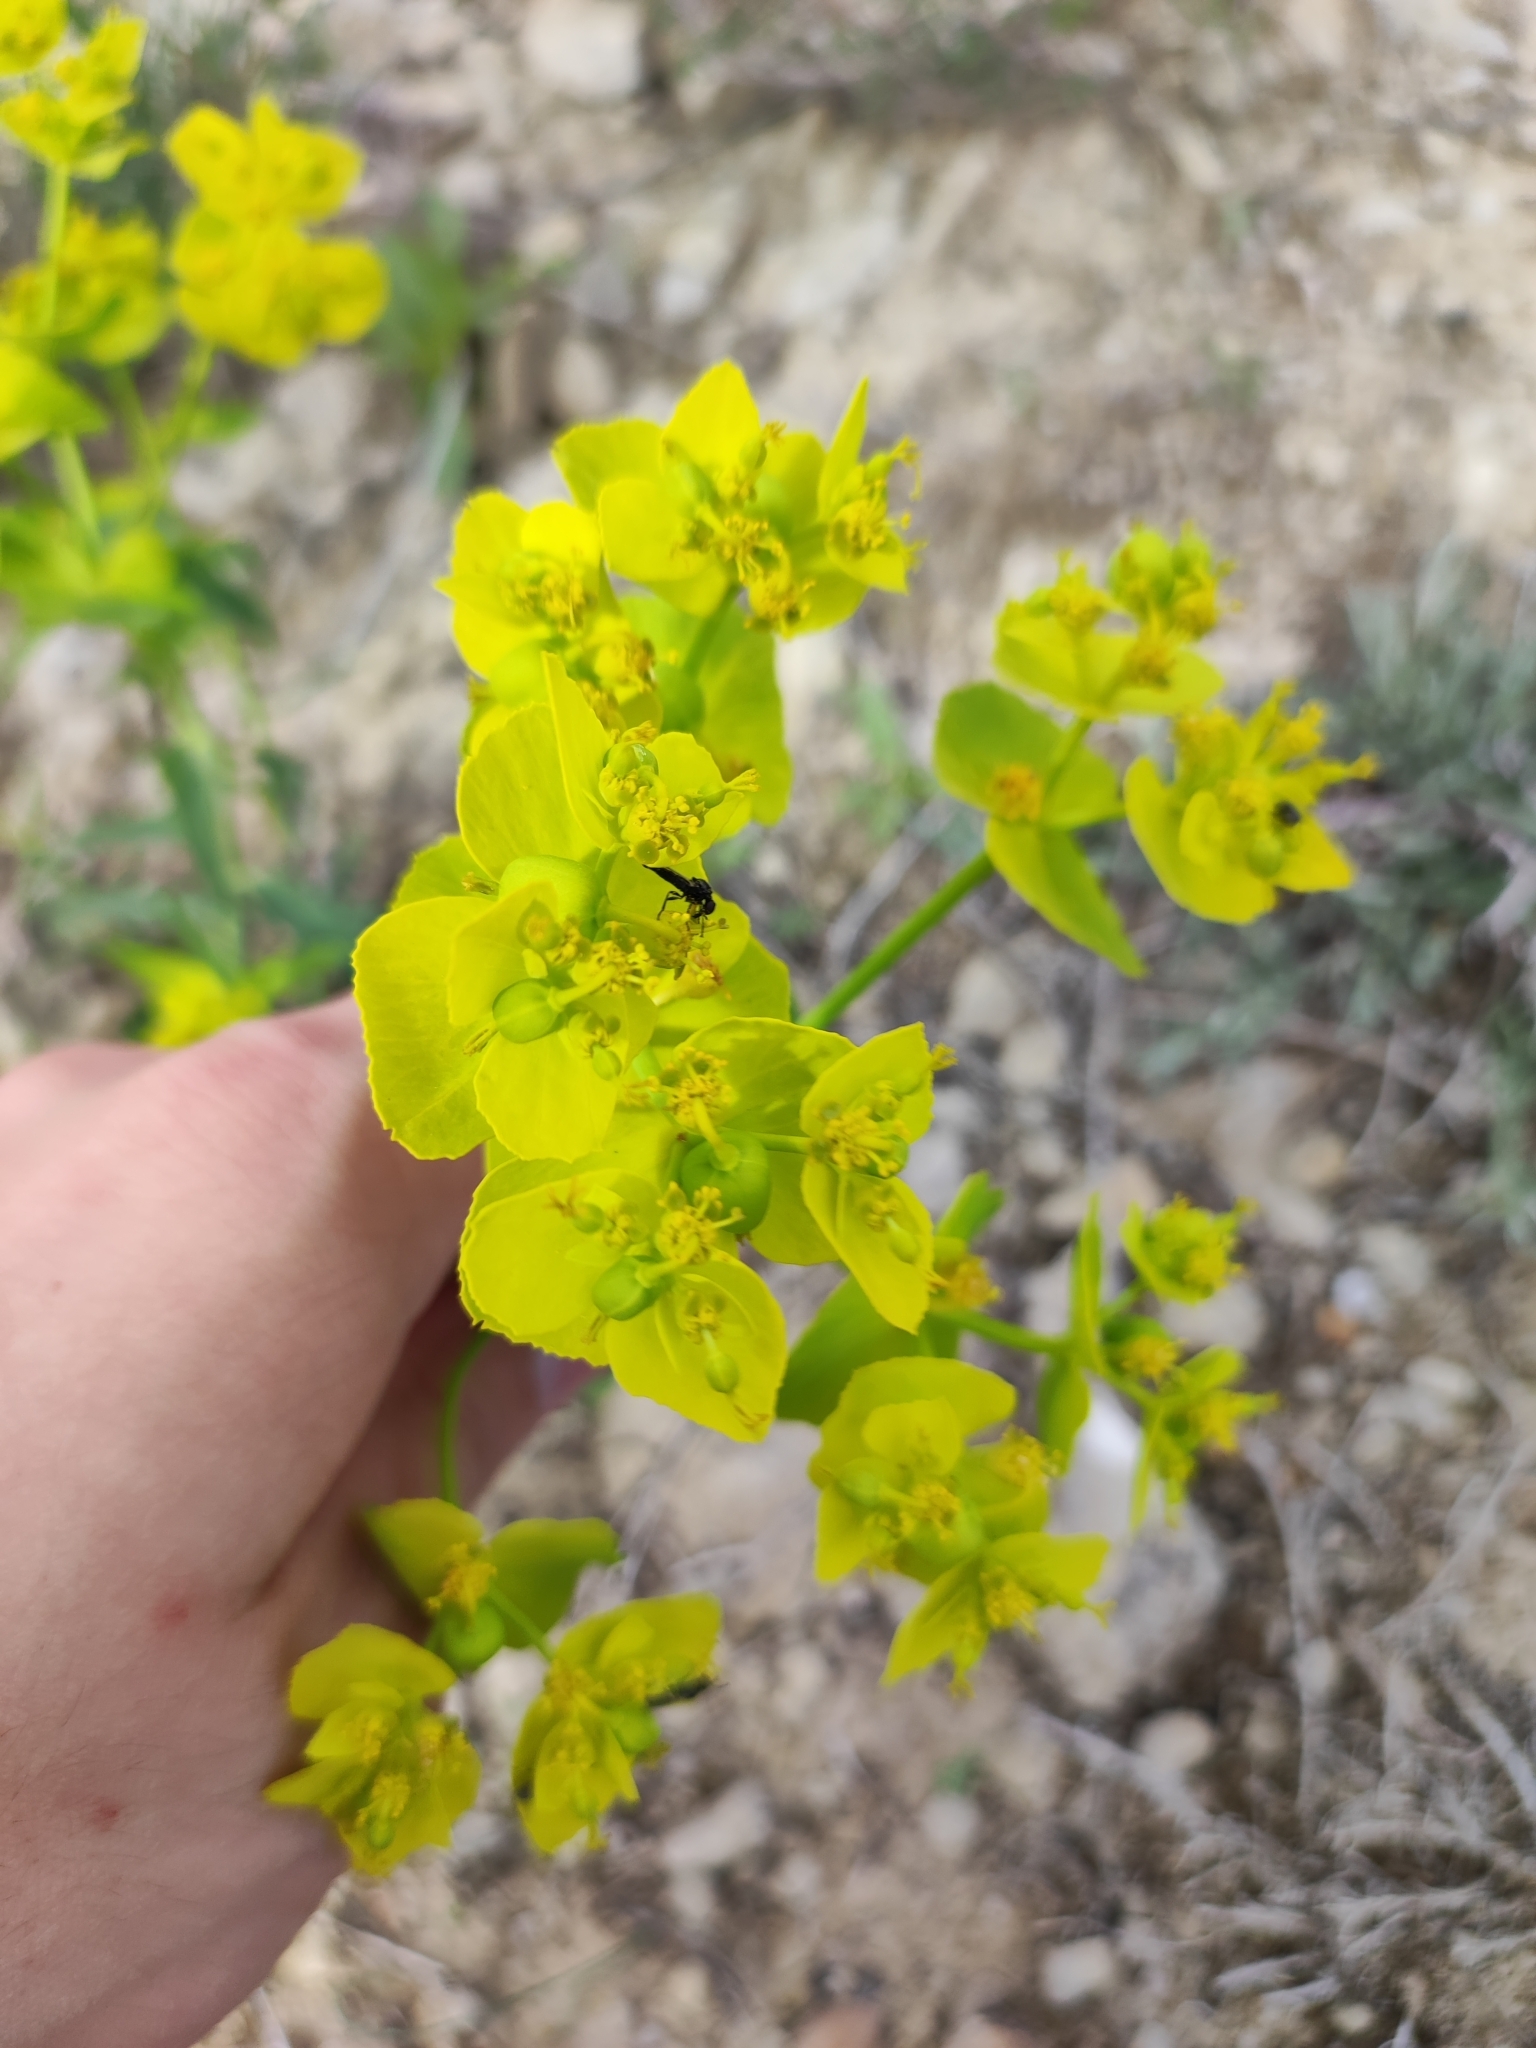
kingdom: Plantae
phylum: Tracheophyta
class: Magnoliopsida
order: Malpighiales
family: Euphorbiaceae
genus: Euphorbia
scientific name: Euphorbia serrata
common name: Serrate spurge
